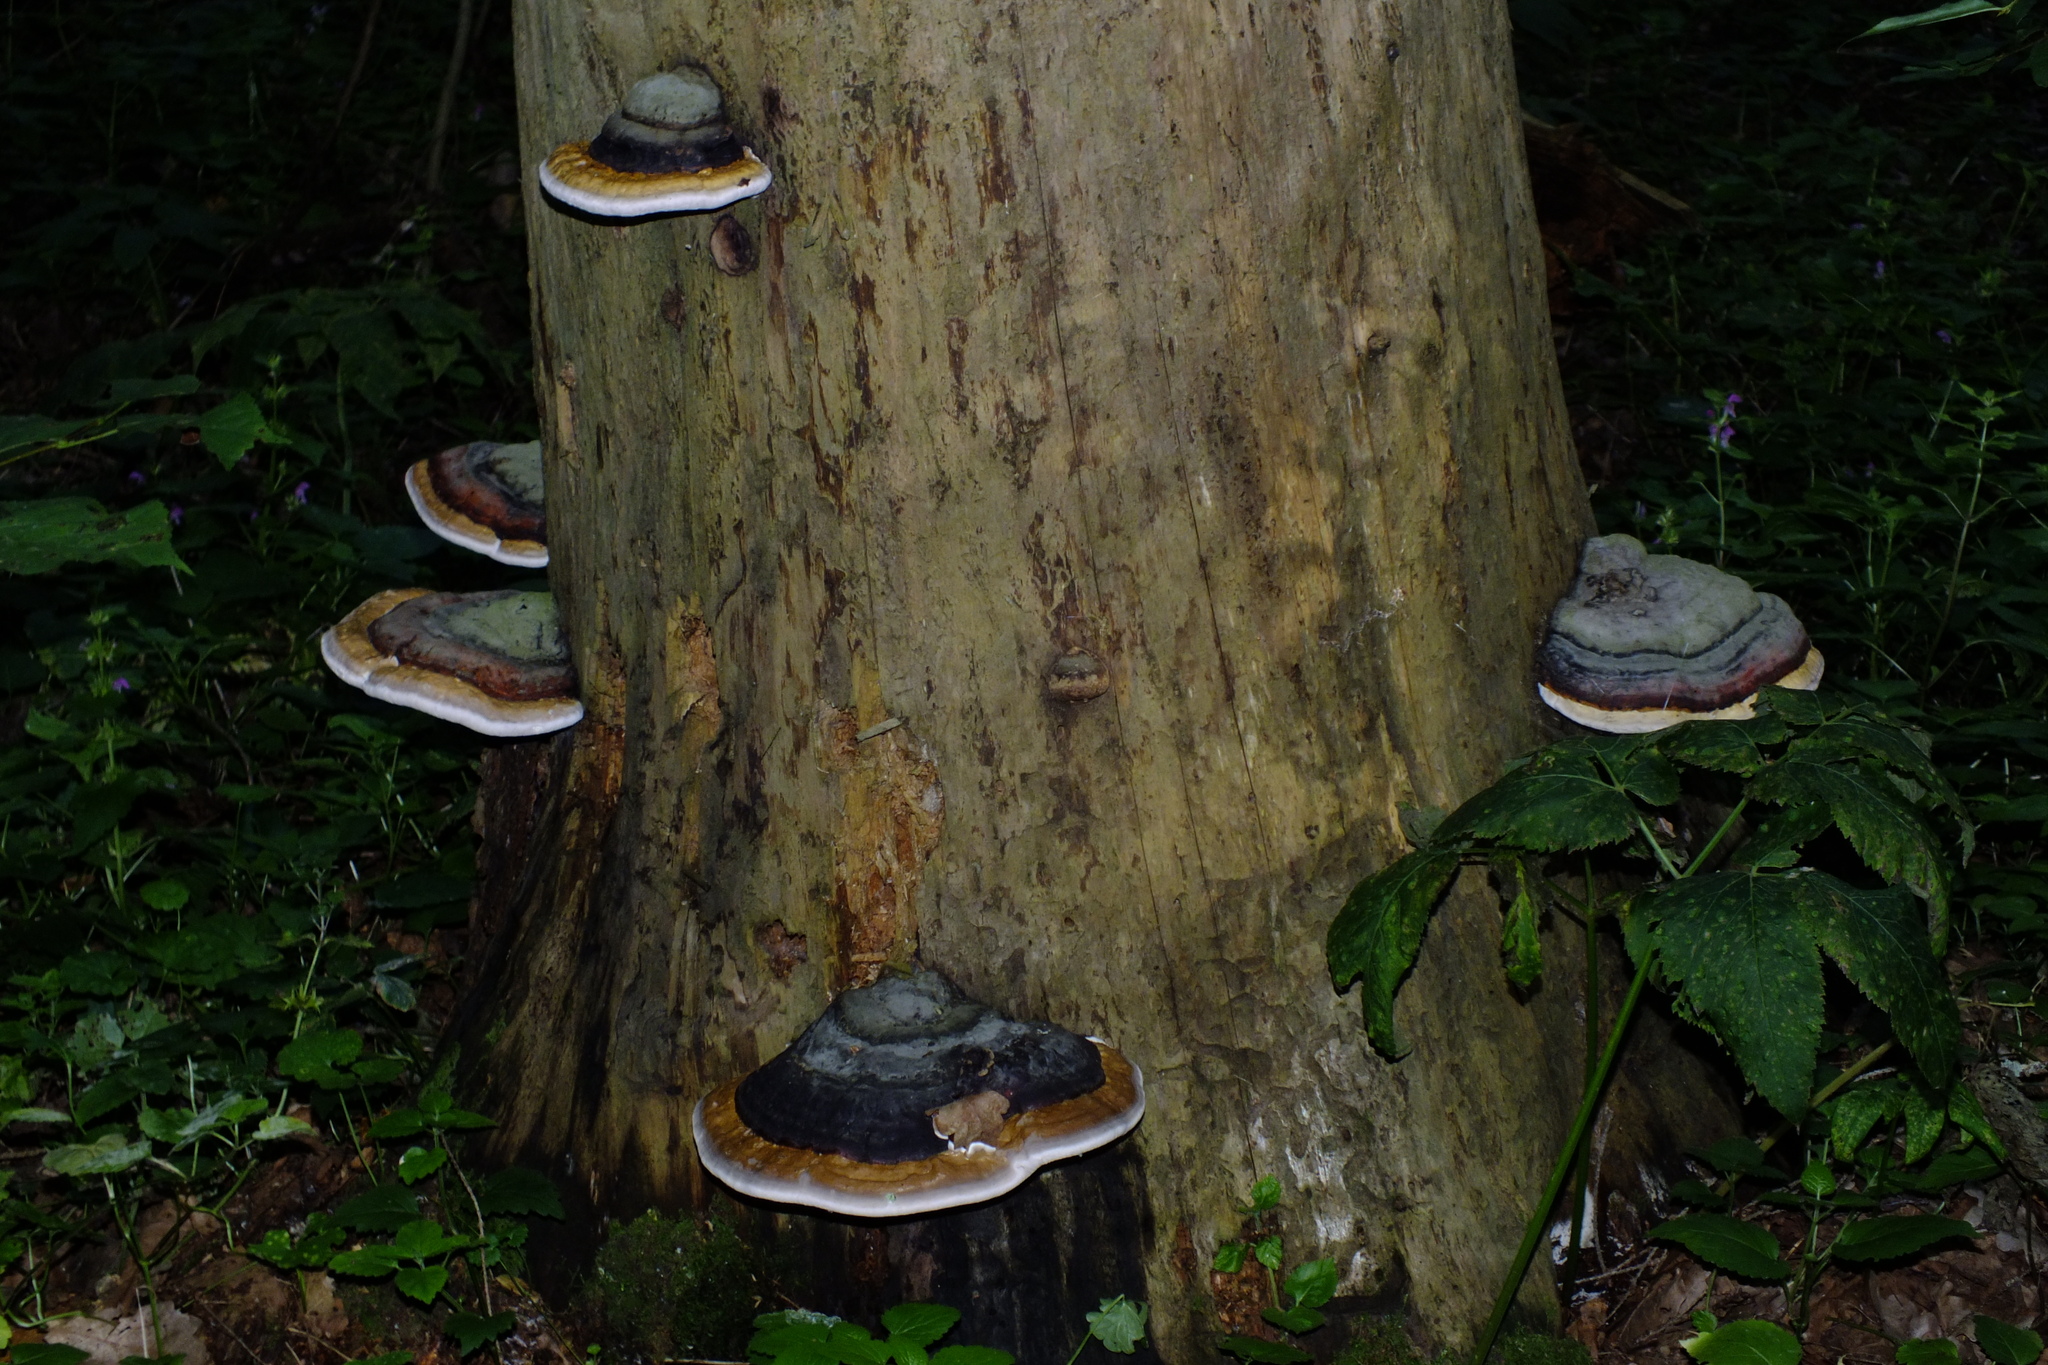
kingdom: Fungi
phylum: Basidiomycota
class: Agaricomycetes
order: Polyporales
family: Fomitopsidaceae
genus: Fomitopsis
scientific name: Fomitopsis pinicola
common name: Red-belted bracket
